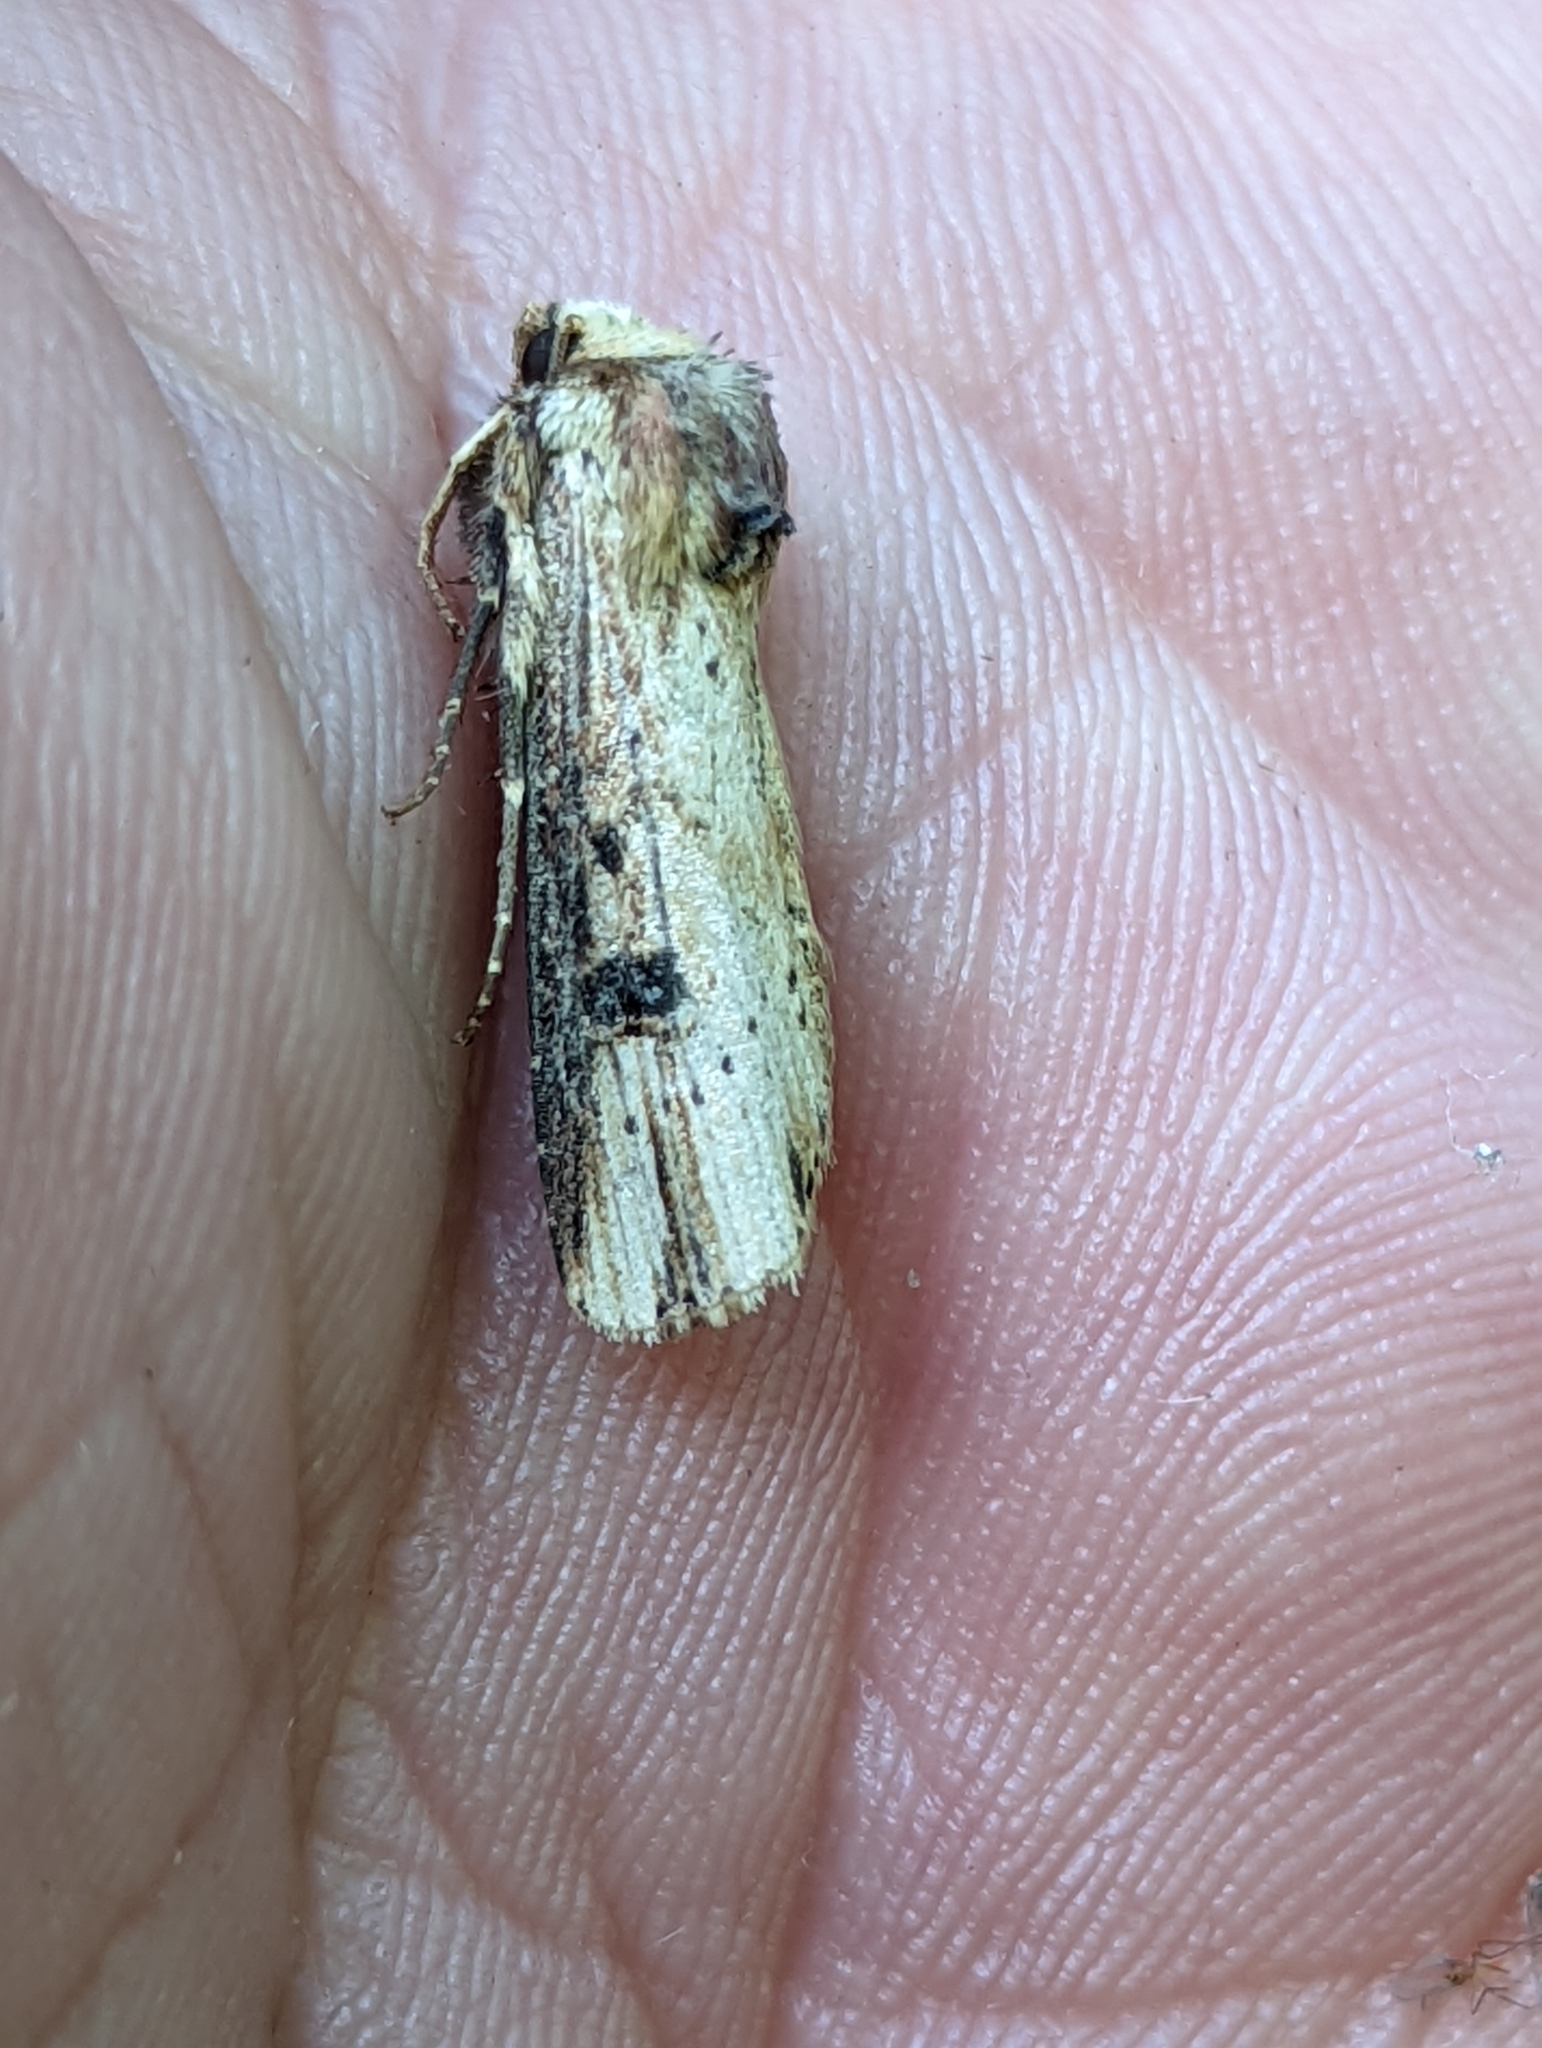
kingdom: Animalia
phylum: Arthropoda
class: Insecta
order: Lepidoptera
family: Noctuidae
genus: Axylia
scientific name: Axylia putris
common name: Flame
